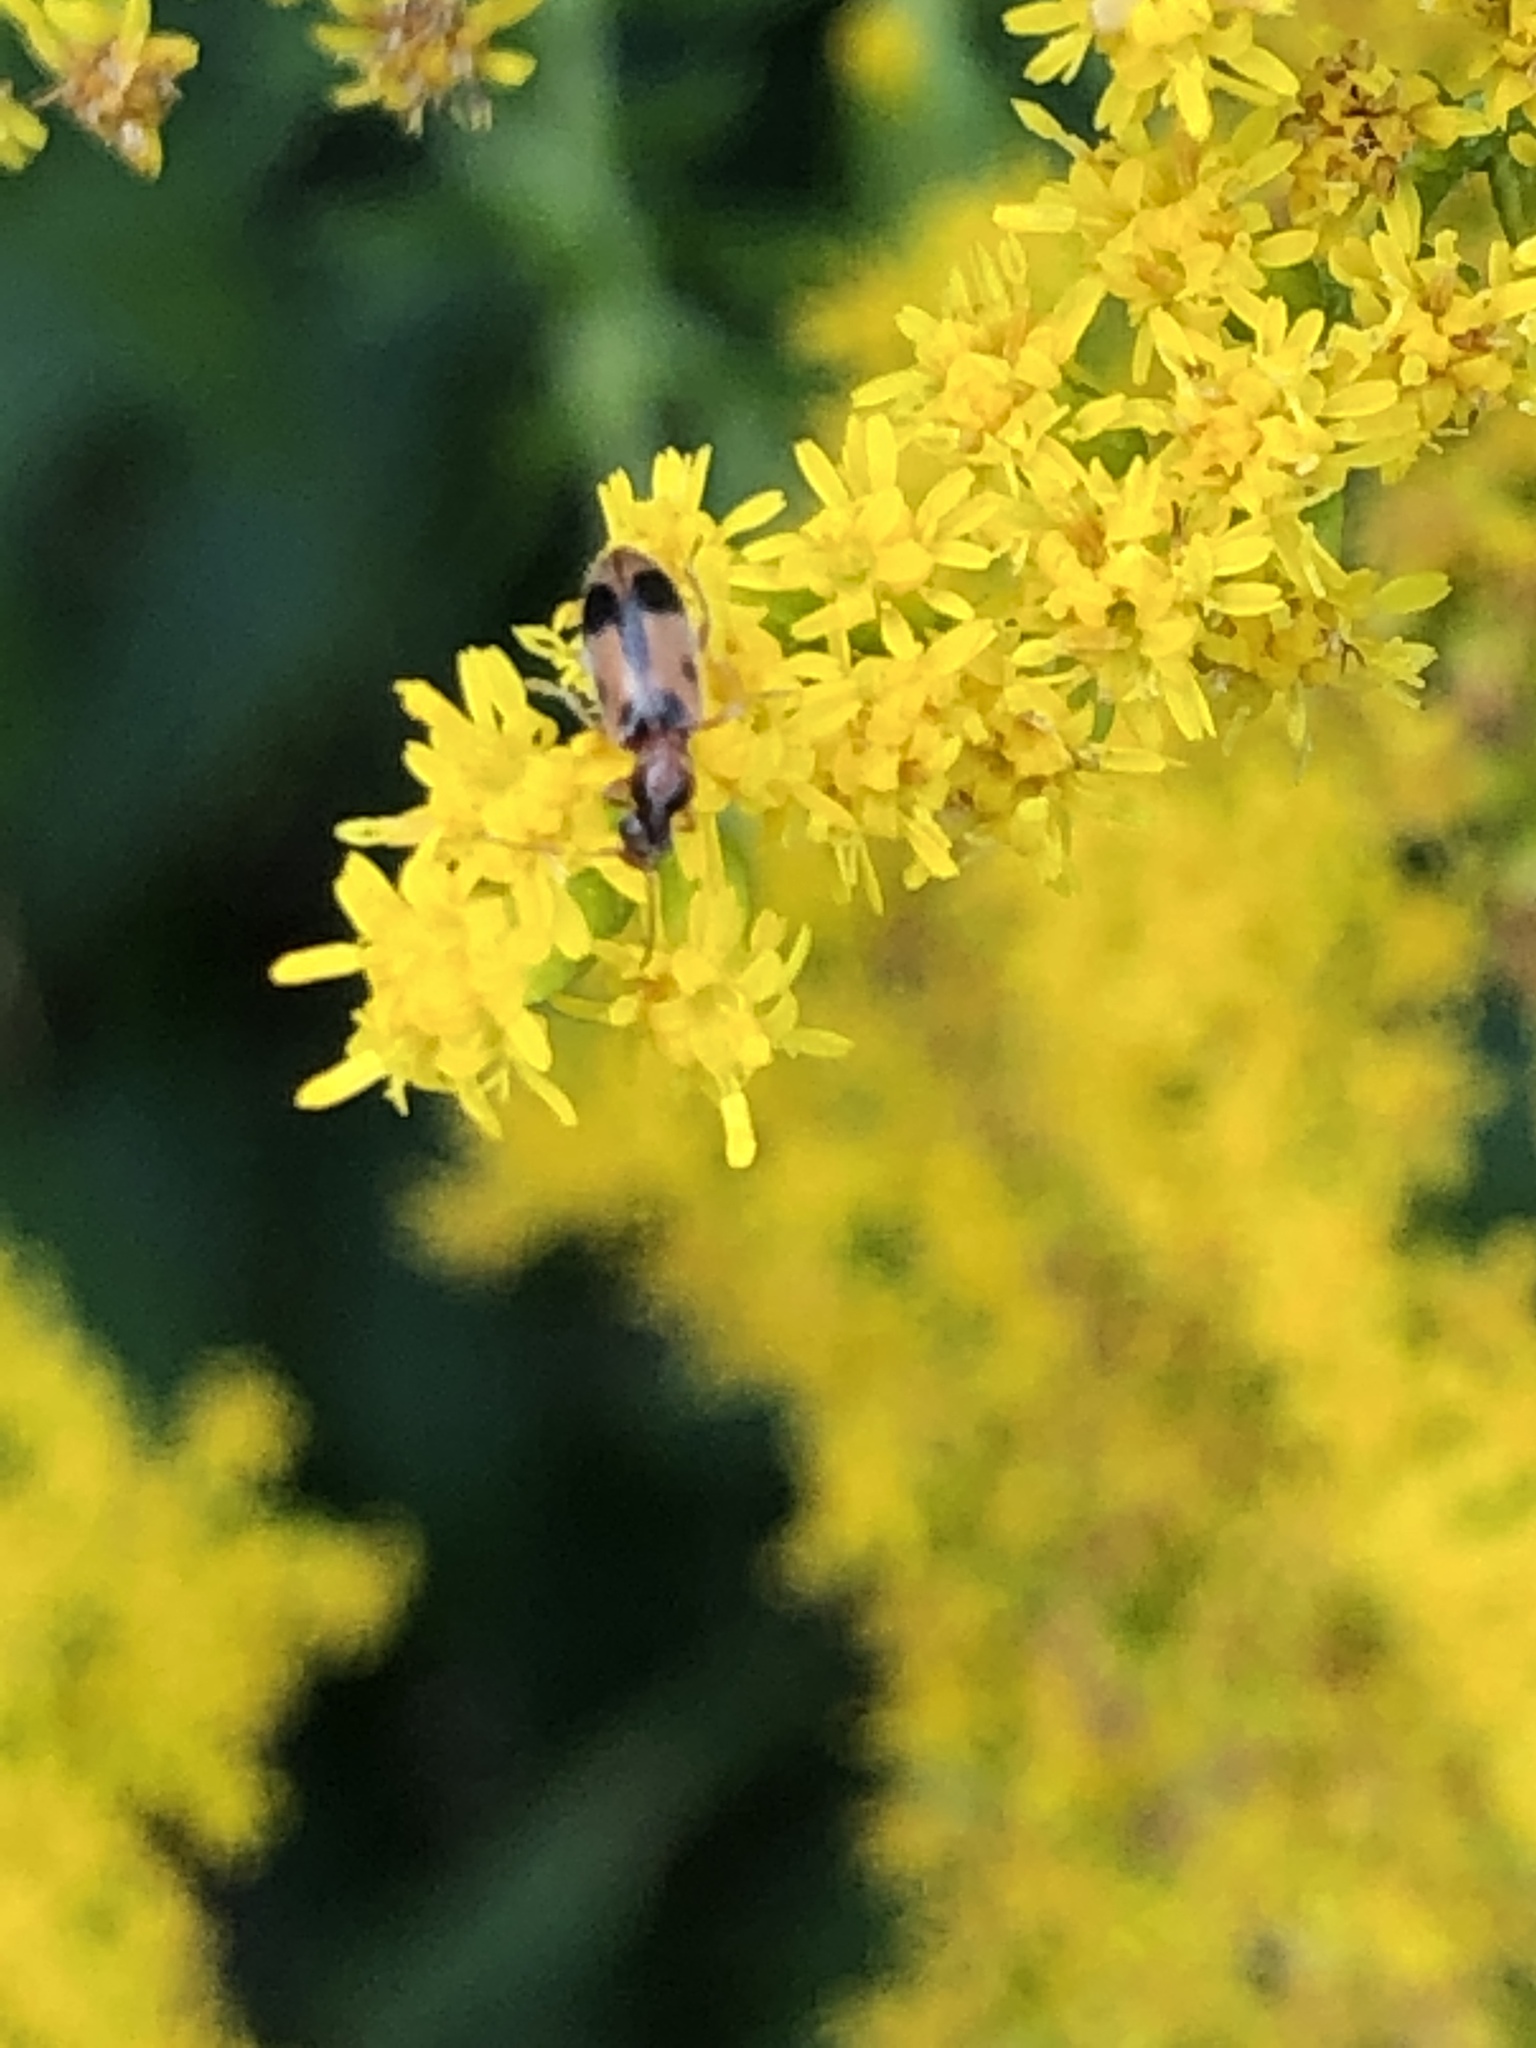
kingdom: Animalia
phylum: Arthropoda
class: Insecta
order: Coleoptera
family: Anthicidae
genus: Notoxus
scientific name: Notoxus monoceros
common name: Monoceros beetle
